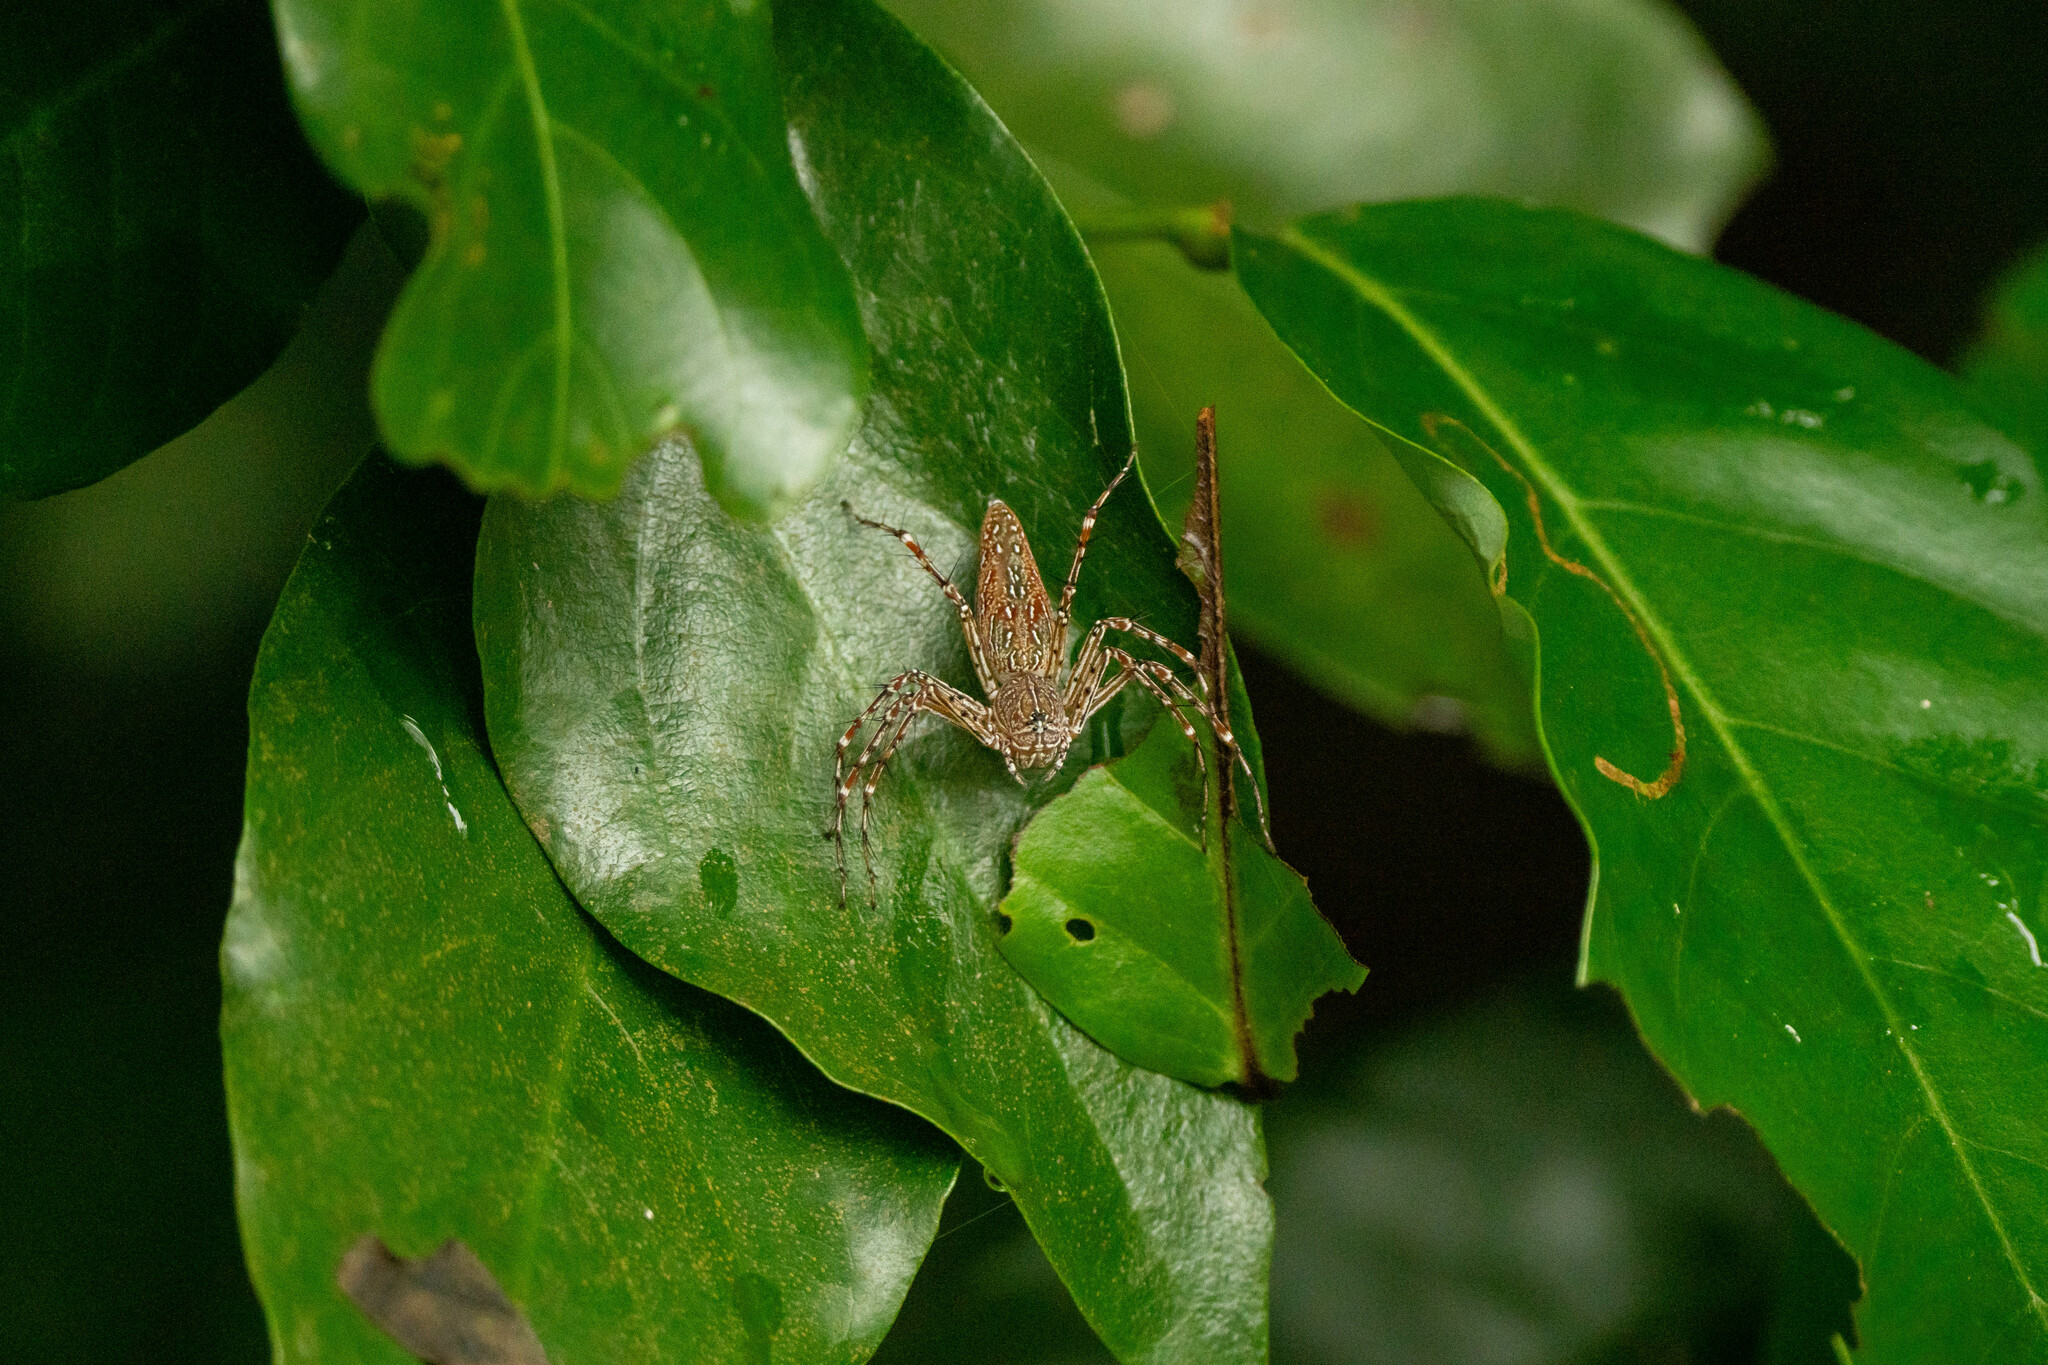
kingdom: Animalia
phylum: Arthropoda
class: Arachnida
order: Araneae
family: Oxyopidae
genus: Hamadruas
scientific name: Hamadruas
